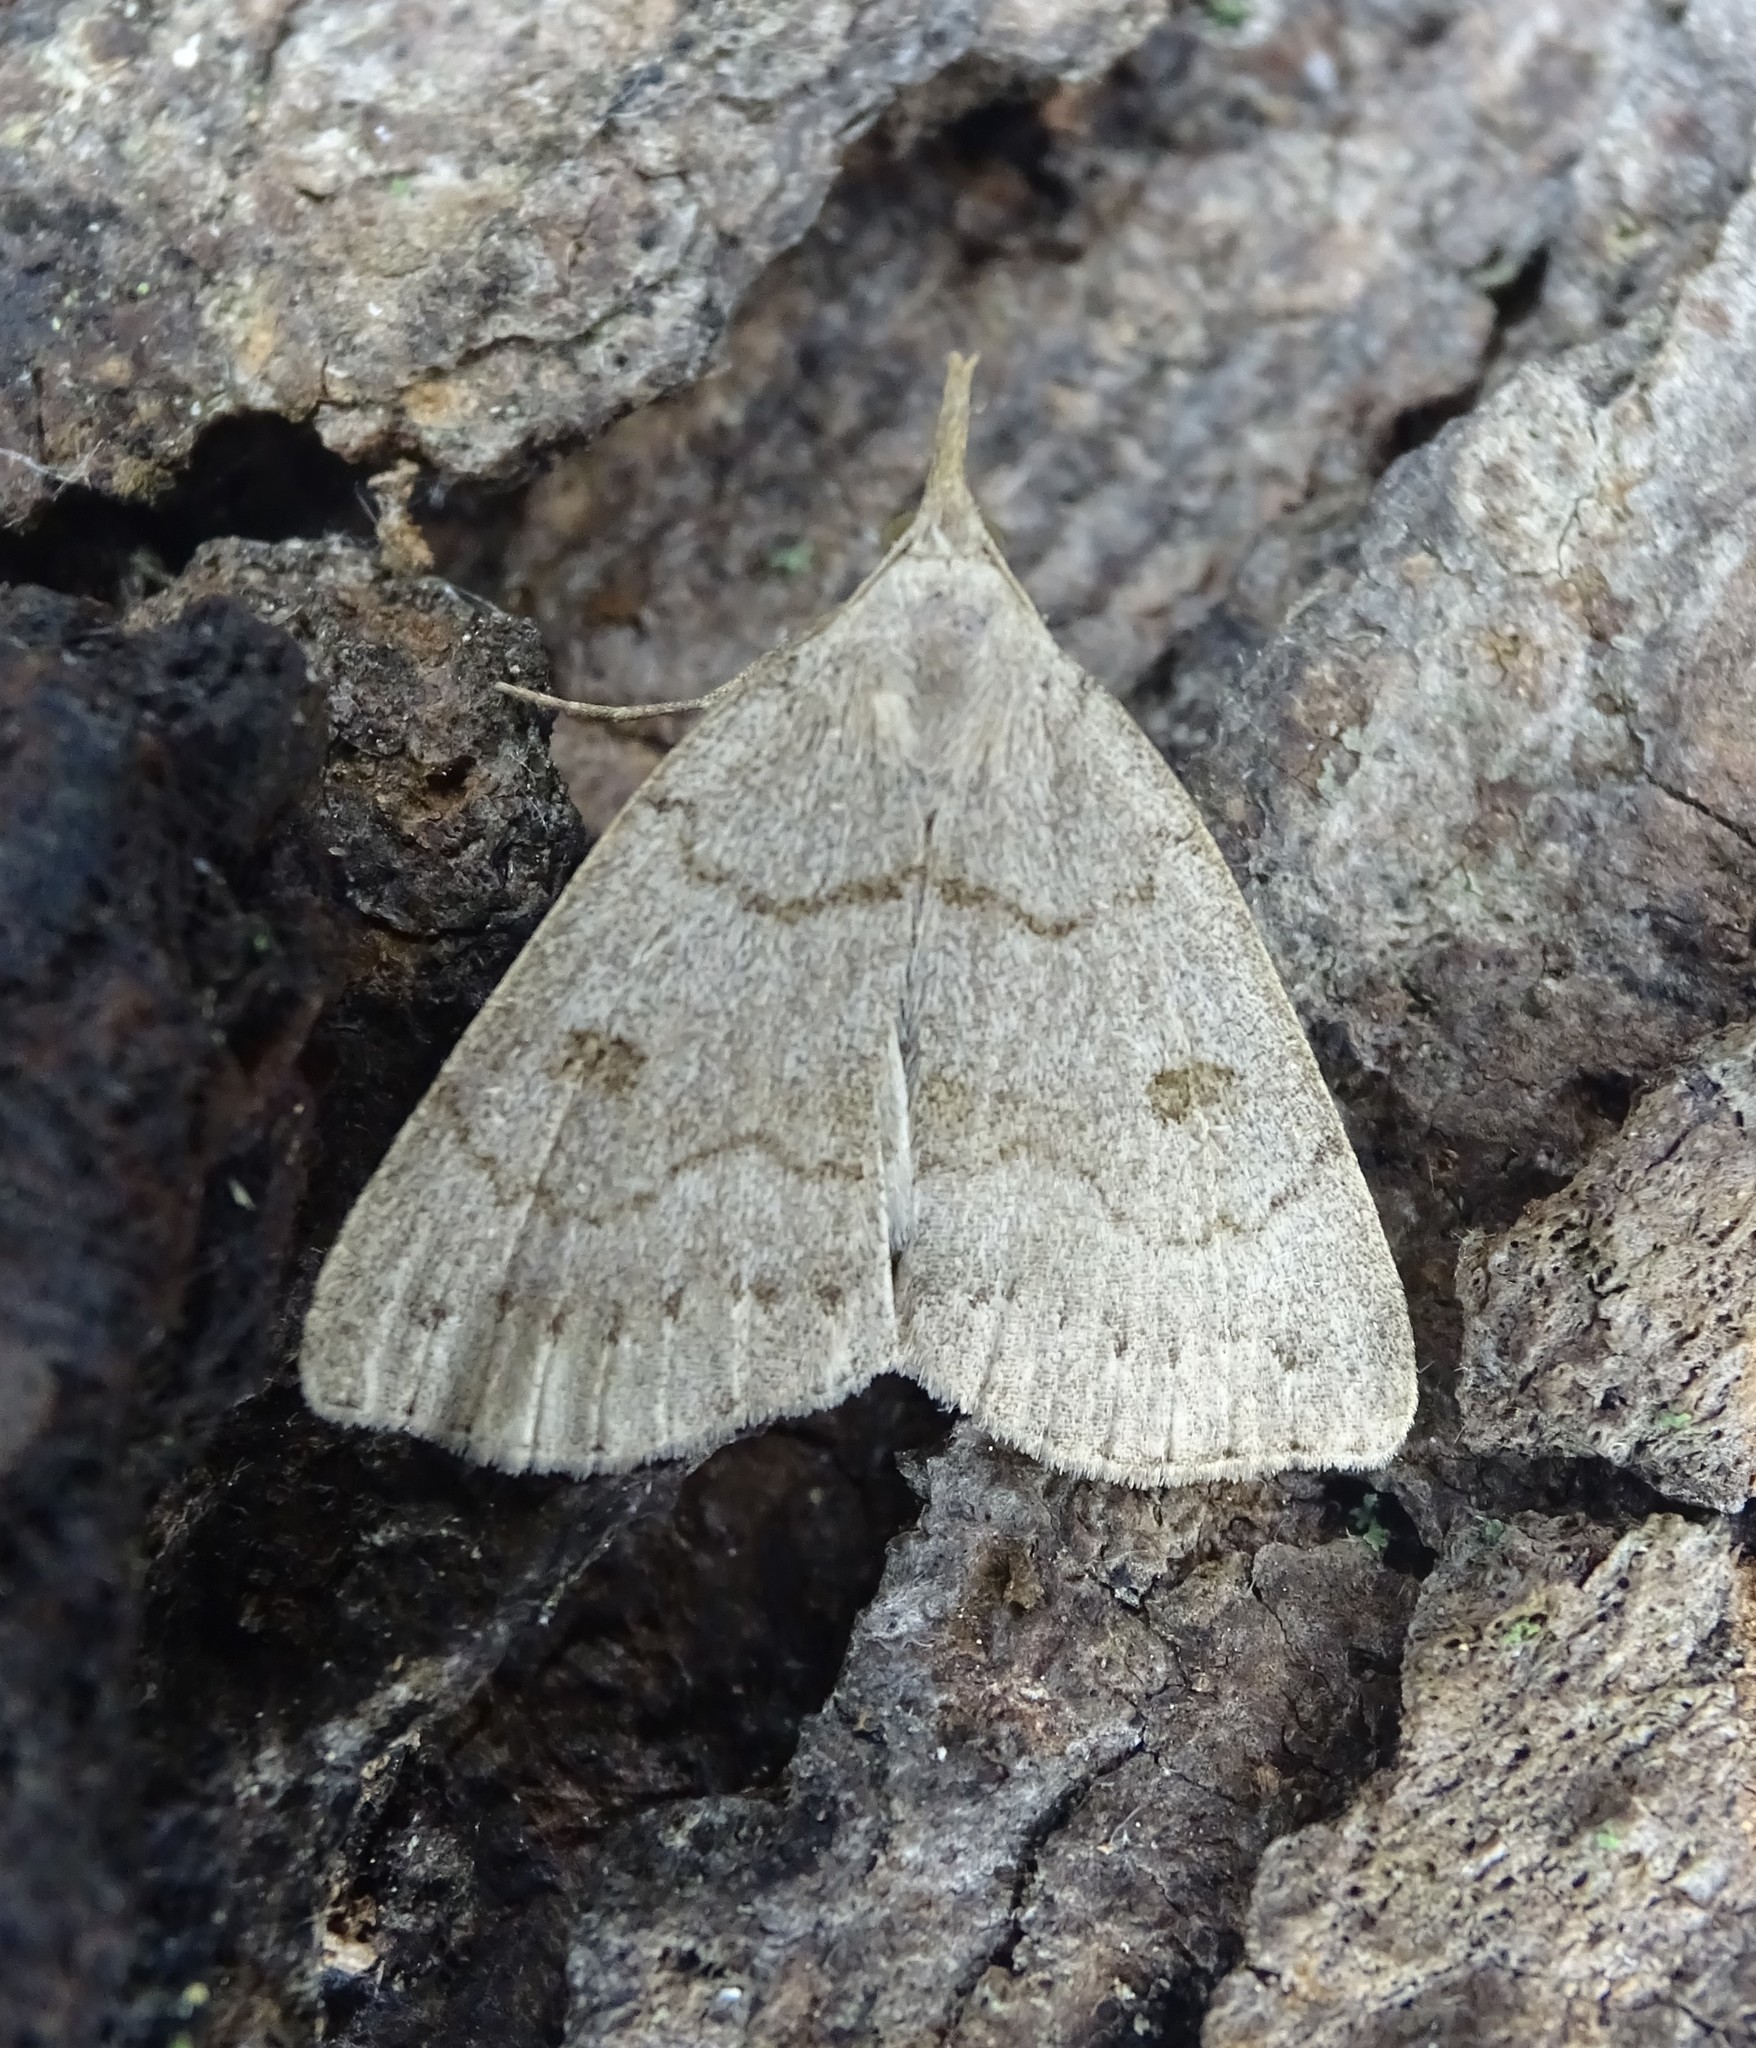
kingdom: Animalia
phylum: Arthropoda
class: Insecta
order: Lepidoptera
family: Erebidae
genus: Macrochilo
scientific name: Macrochilo morbidalis
